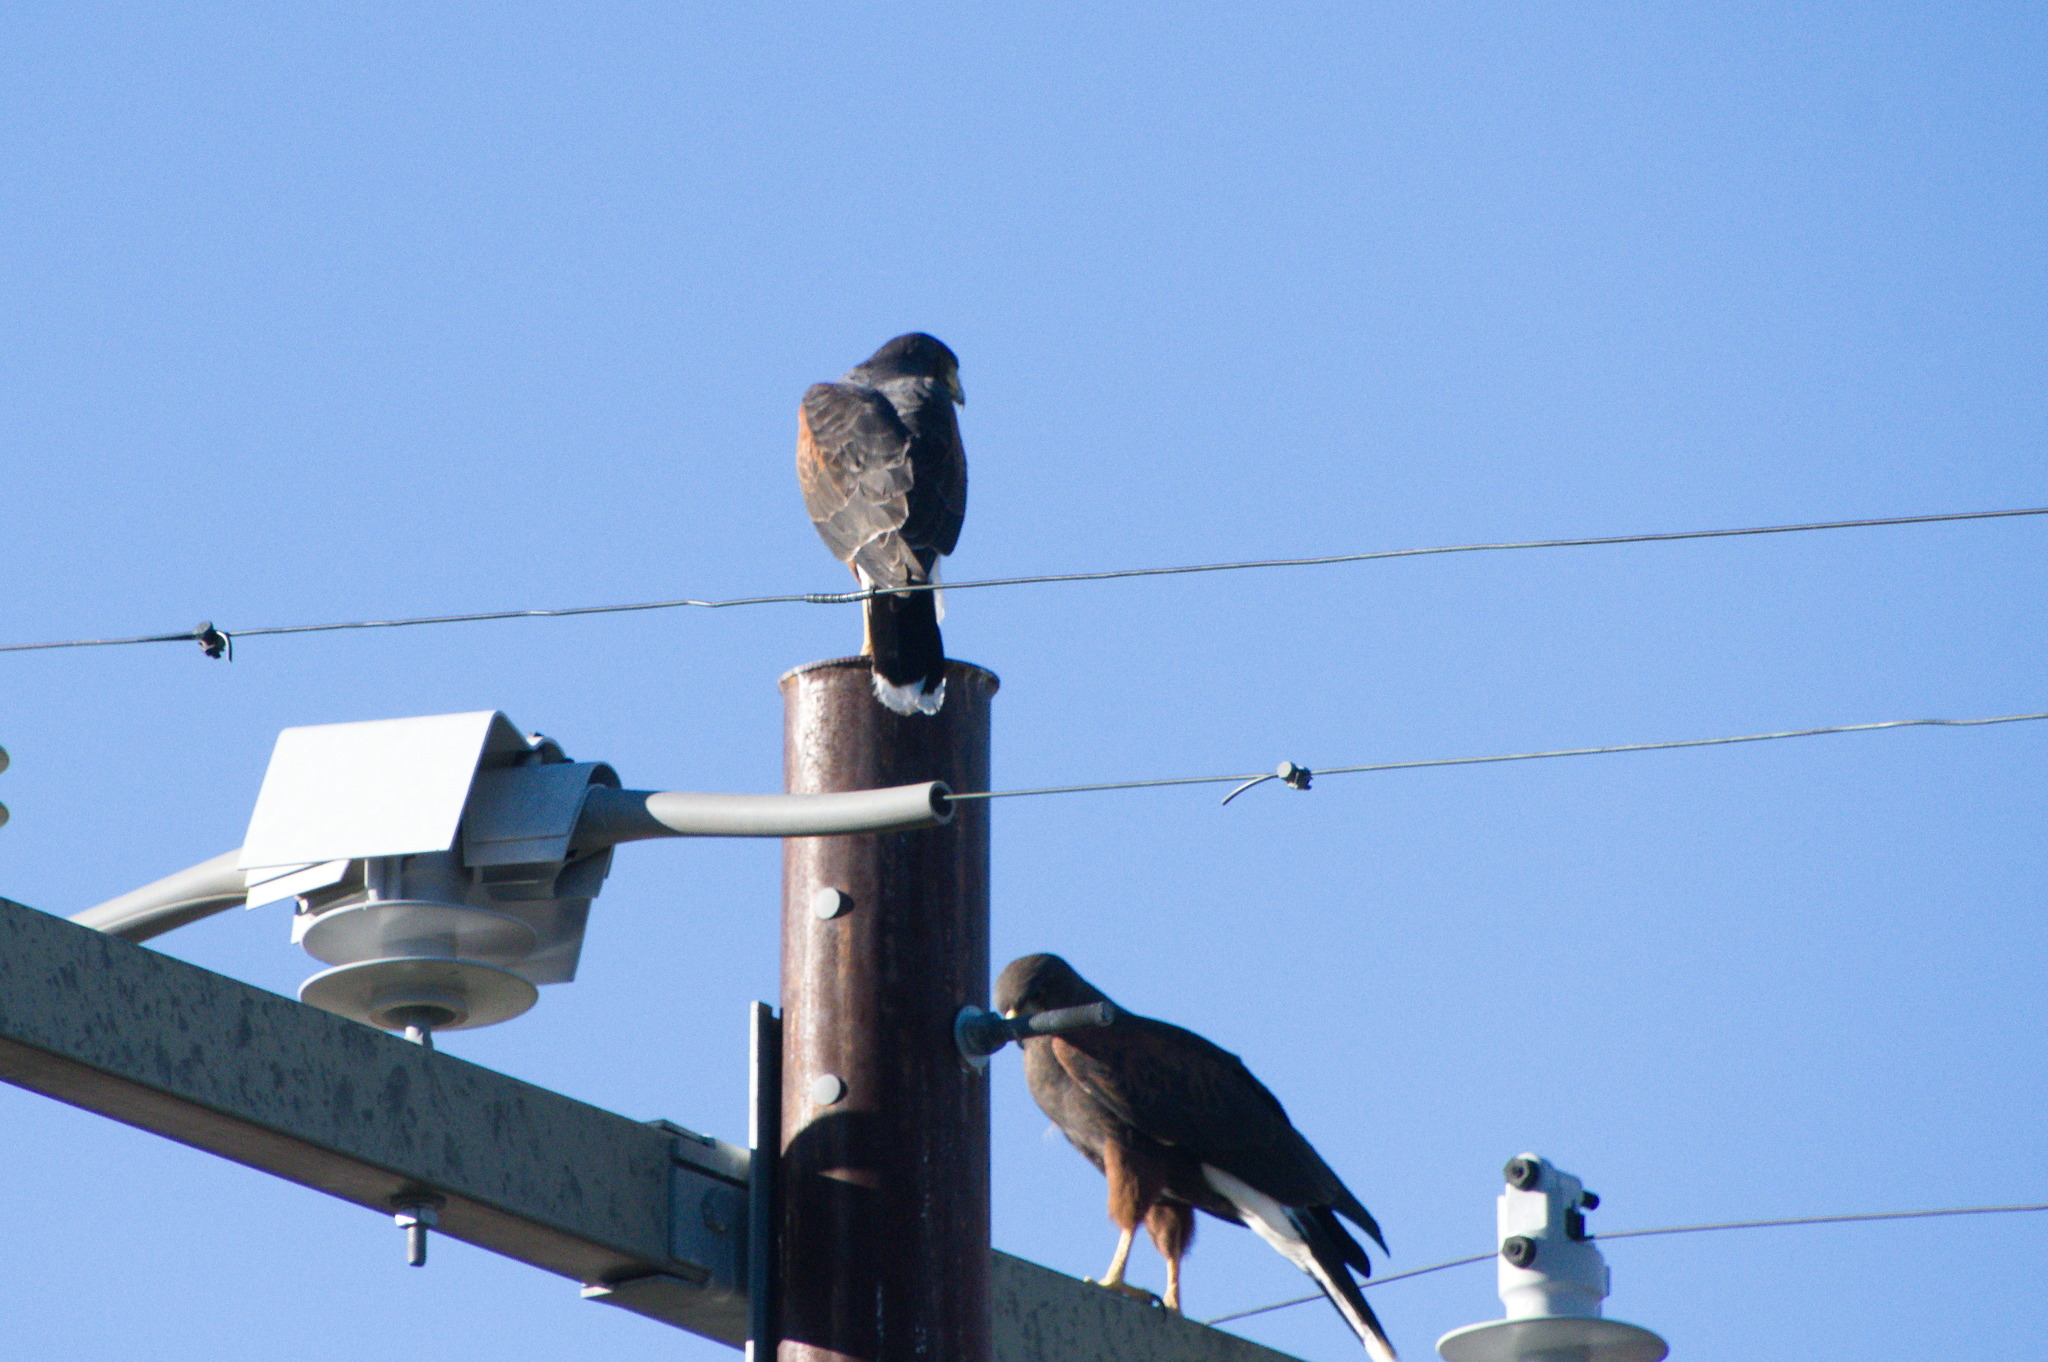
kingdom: Animalia
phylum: Chordata
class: Aves
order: Accipitriformes
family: Accipitridae
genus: Parabuteo
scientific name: Parabuteo unicinctus
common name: Harris's hawk
